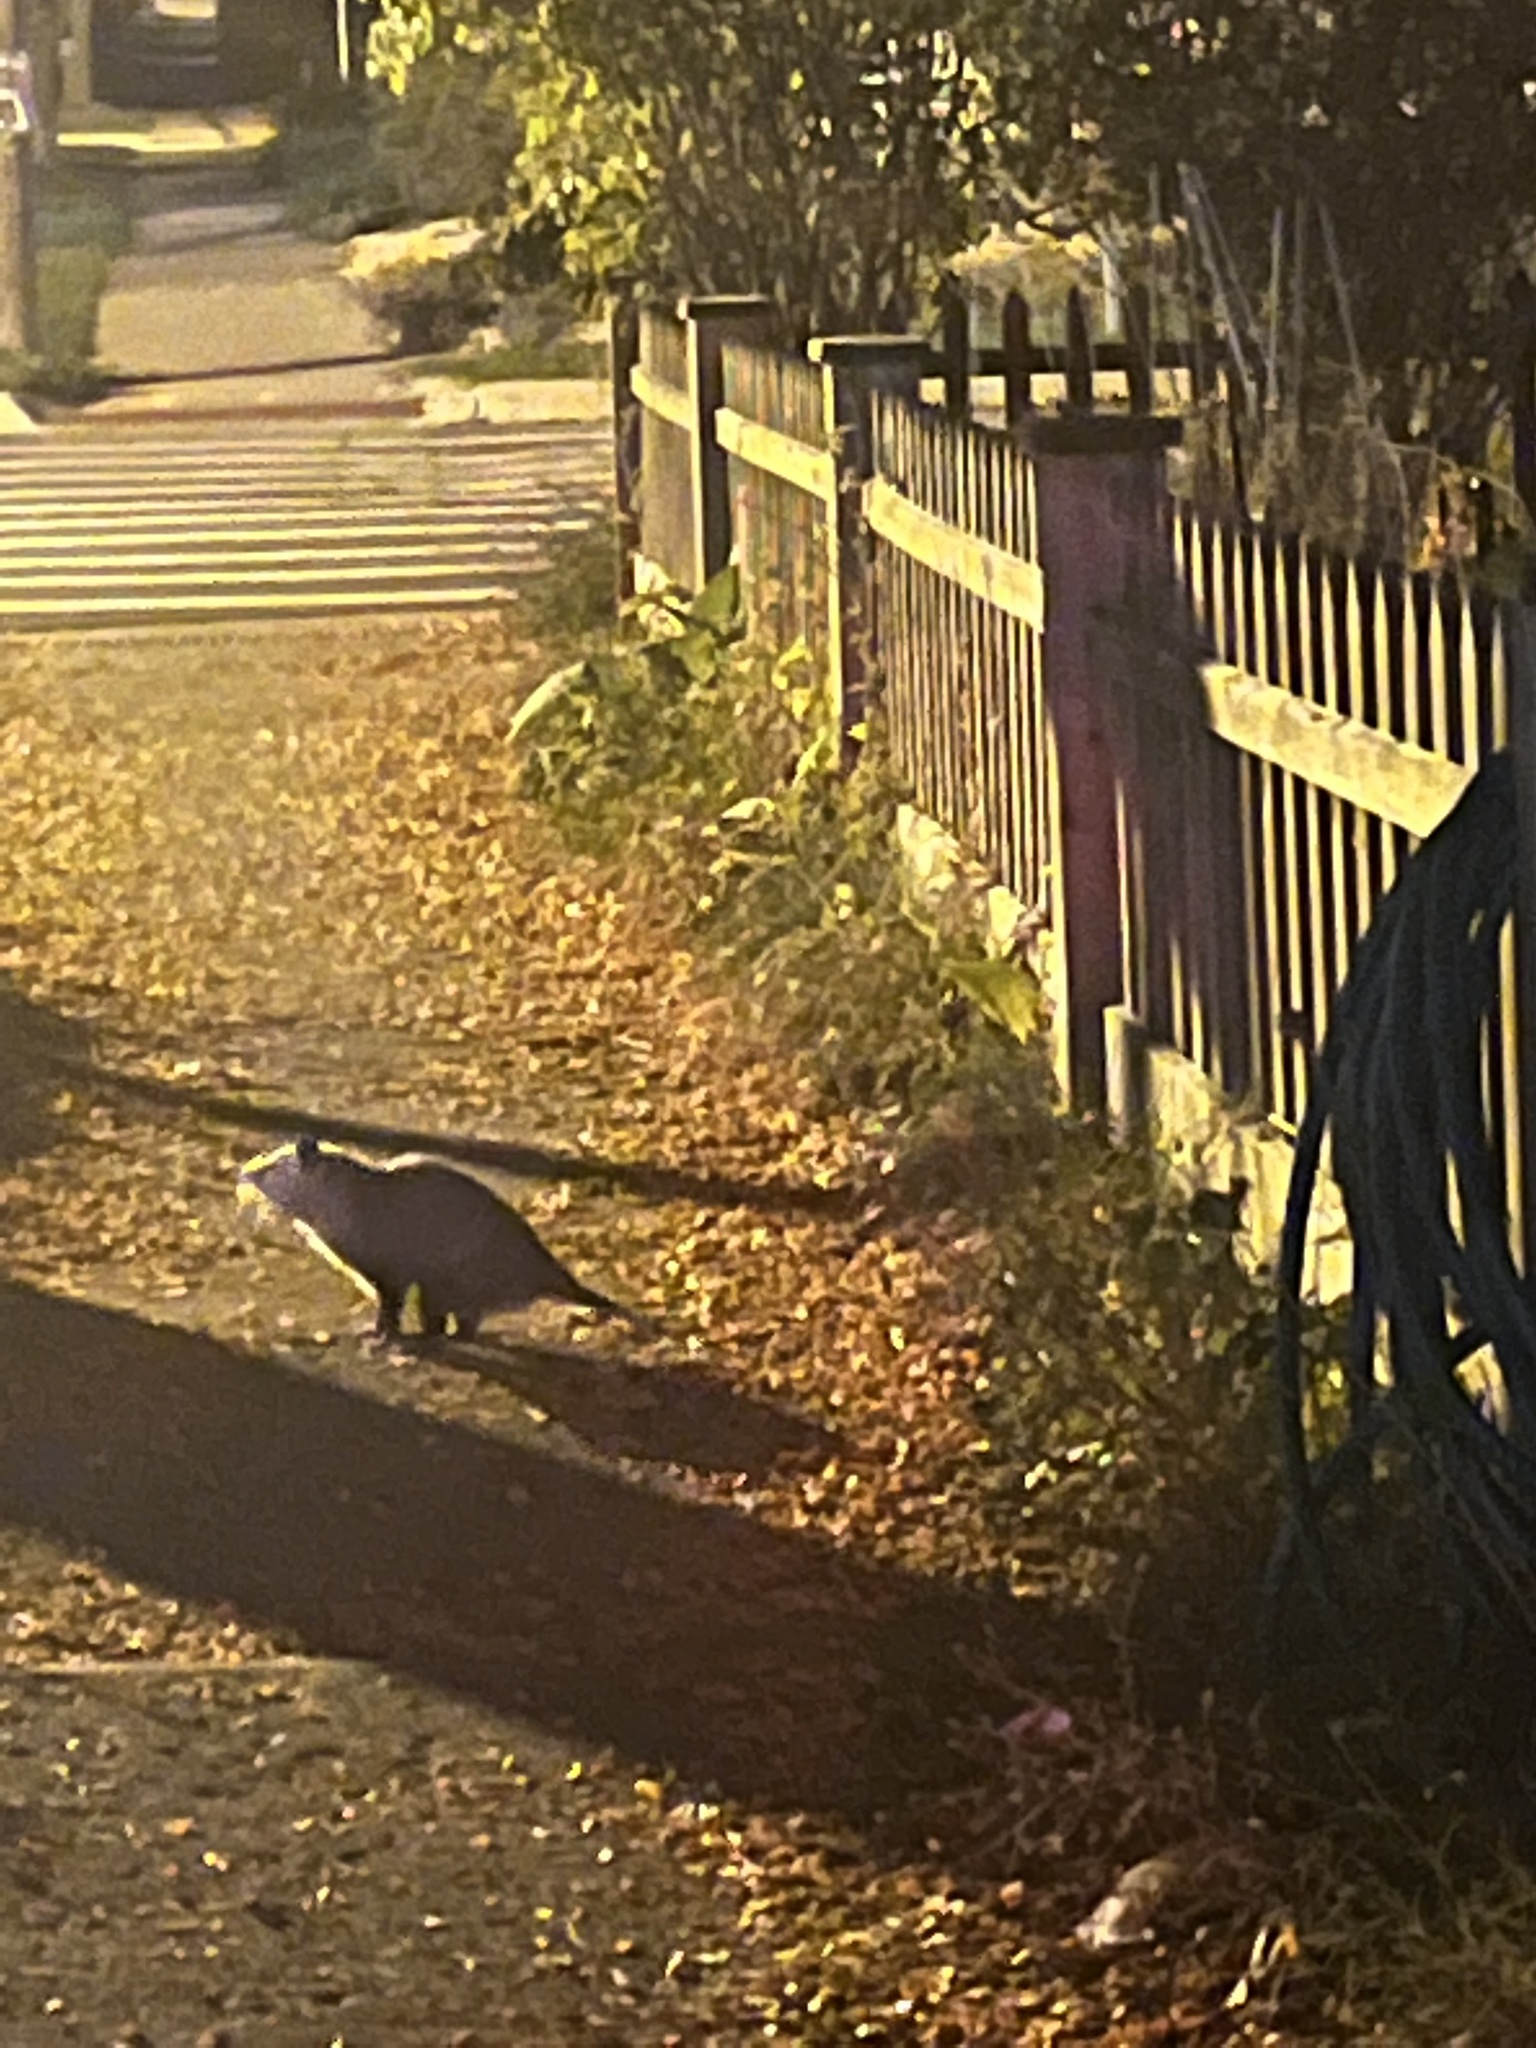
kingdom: Animalia
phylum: Chordata
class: Mammalia
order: Didelphimorphia
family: Didelphidae
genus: Didelphis
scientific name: Didelphis virginiana
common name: Virginia opossum
